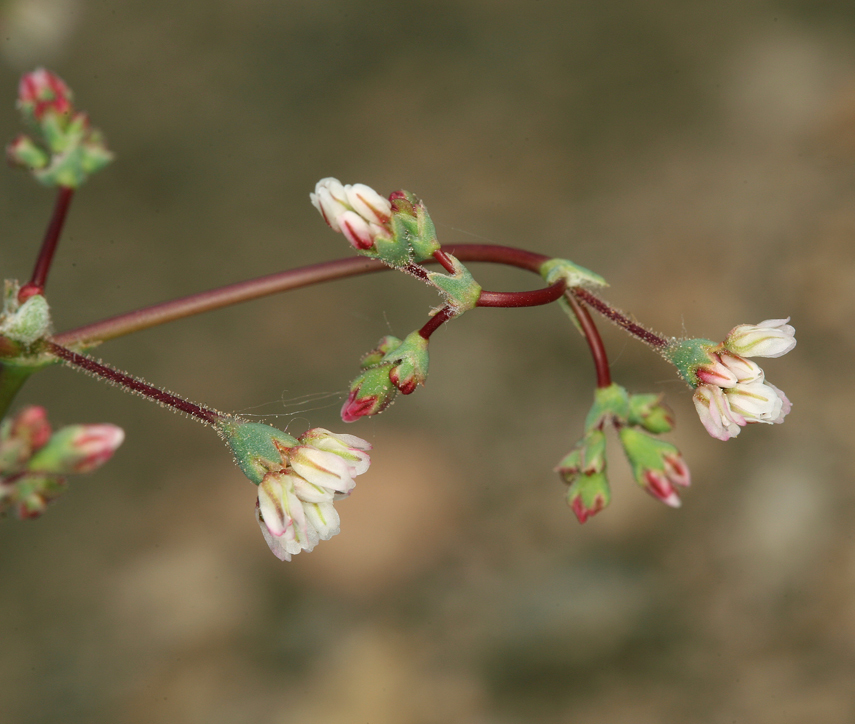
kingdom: Plantae
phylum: Tracheophyta
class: Magnoliopsida
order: Caryophyllales
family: Polygonaceae
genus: Eriogonum
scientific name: Eriogonum nutans
